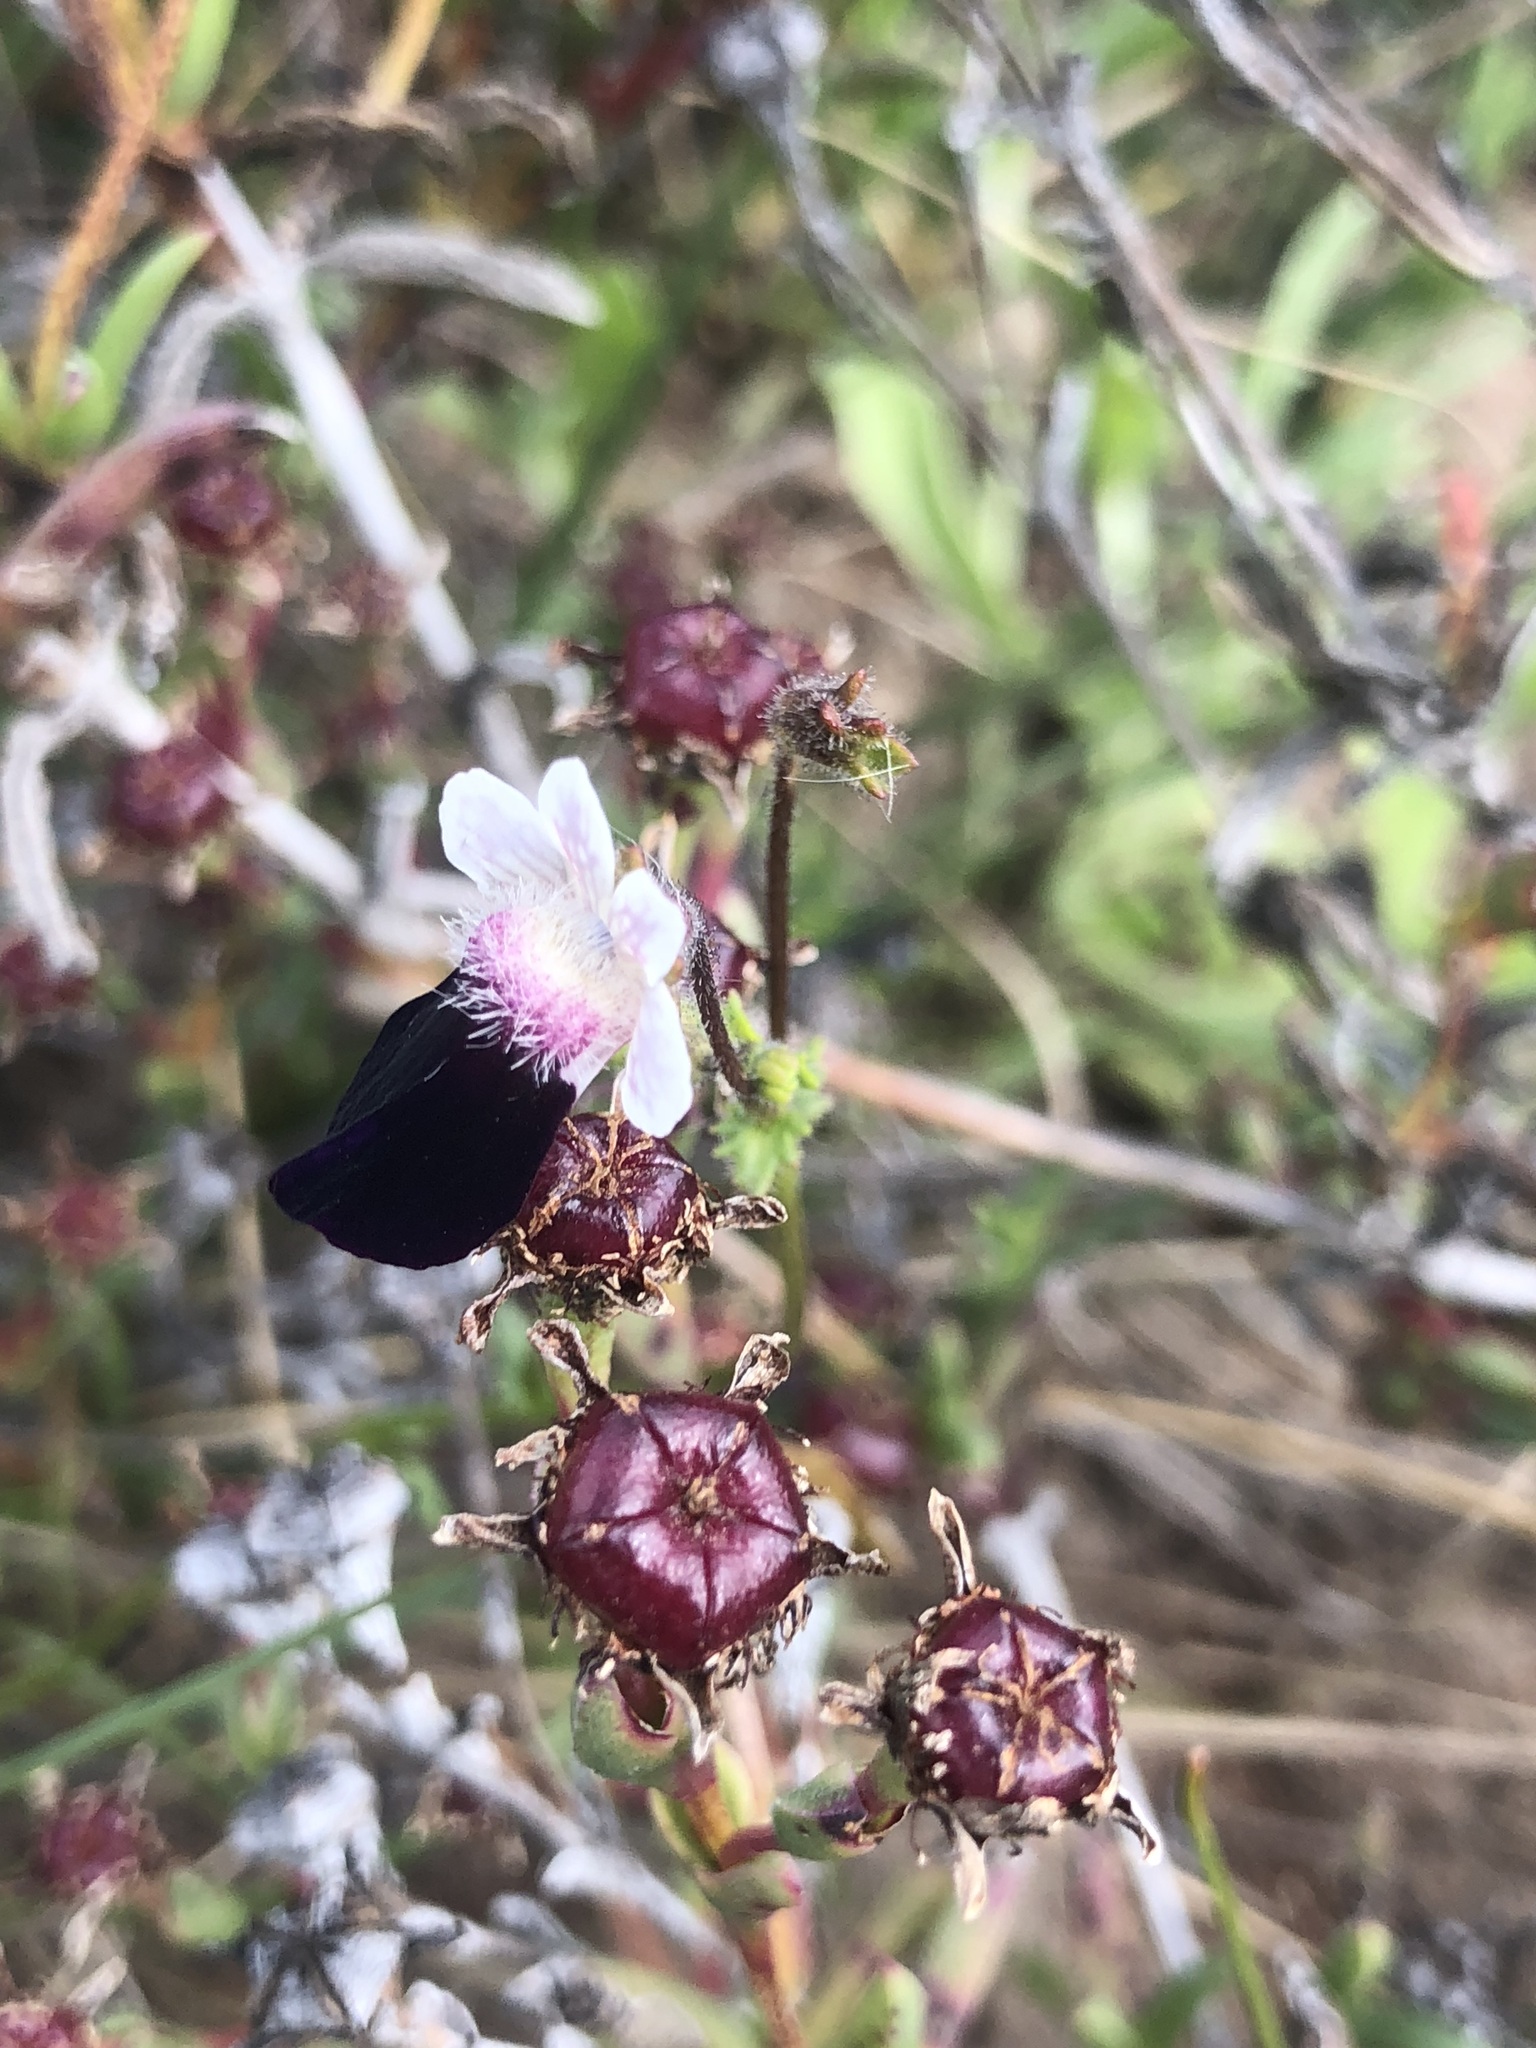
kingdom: Plantae
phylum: Tracheophyta
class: Magnoliopsida
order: Lamiales
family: Scrophulariaceae
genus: Nemesia
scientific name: Nemesia barbata
